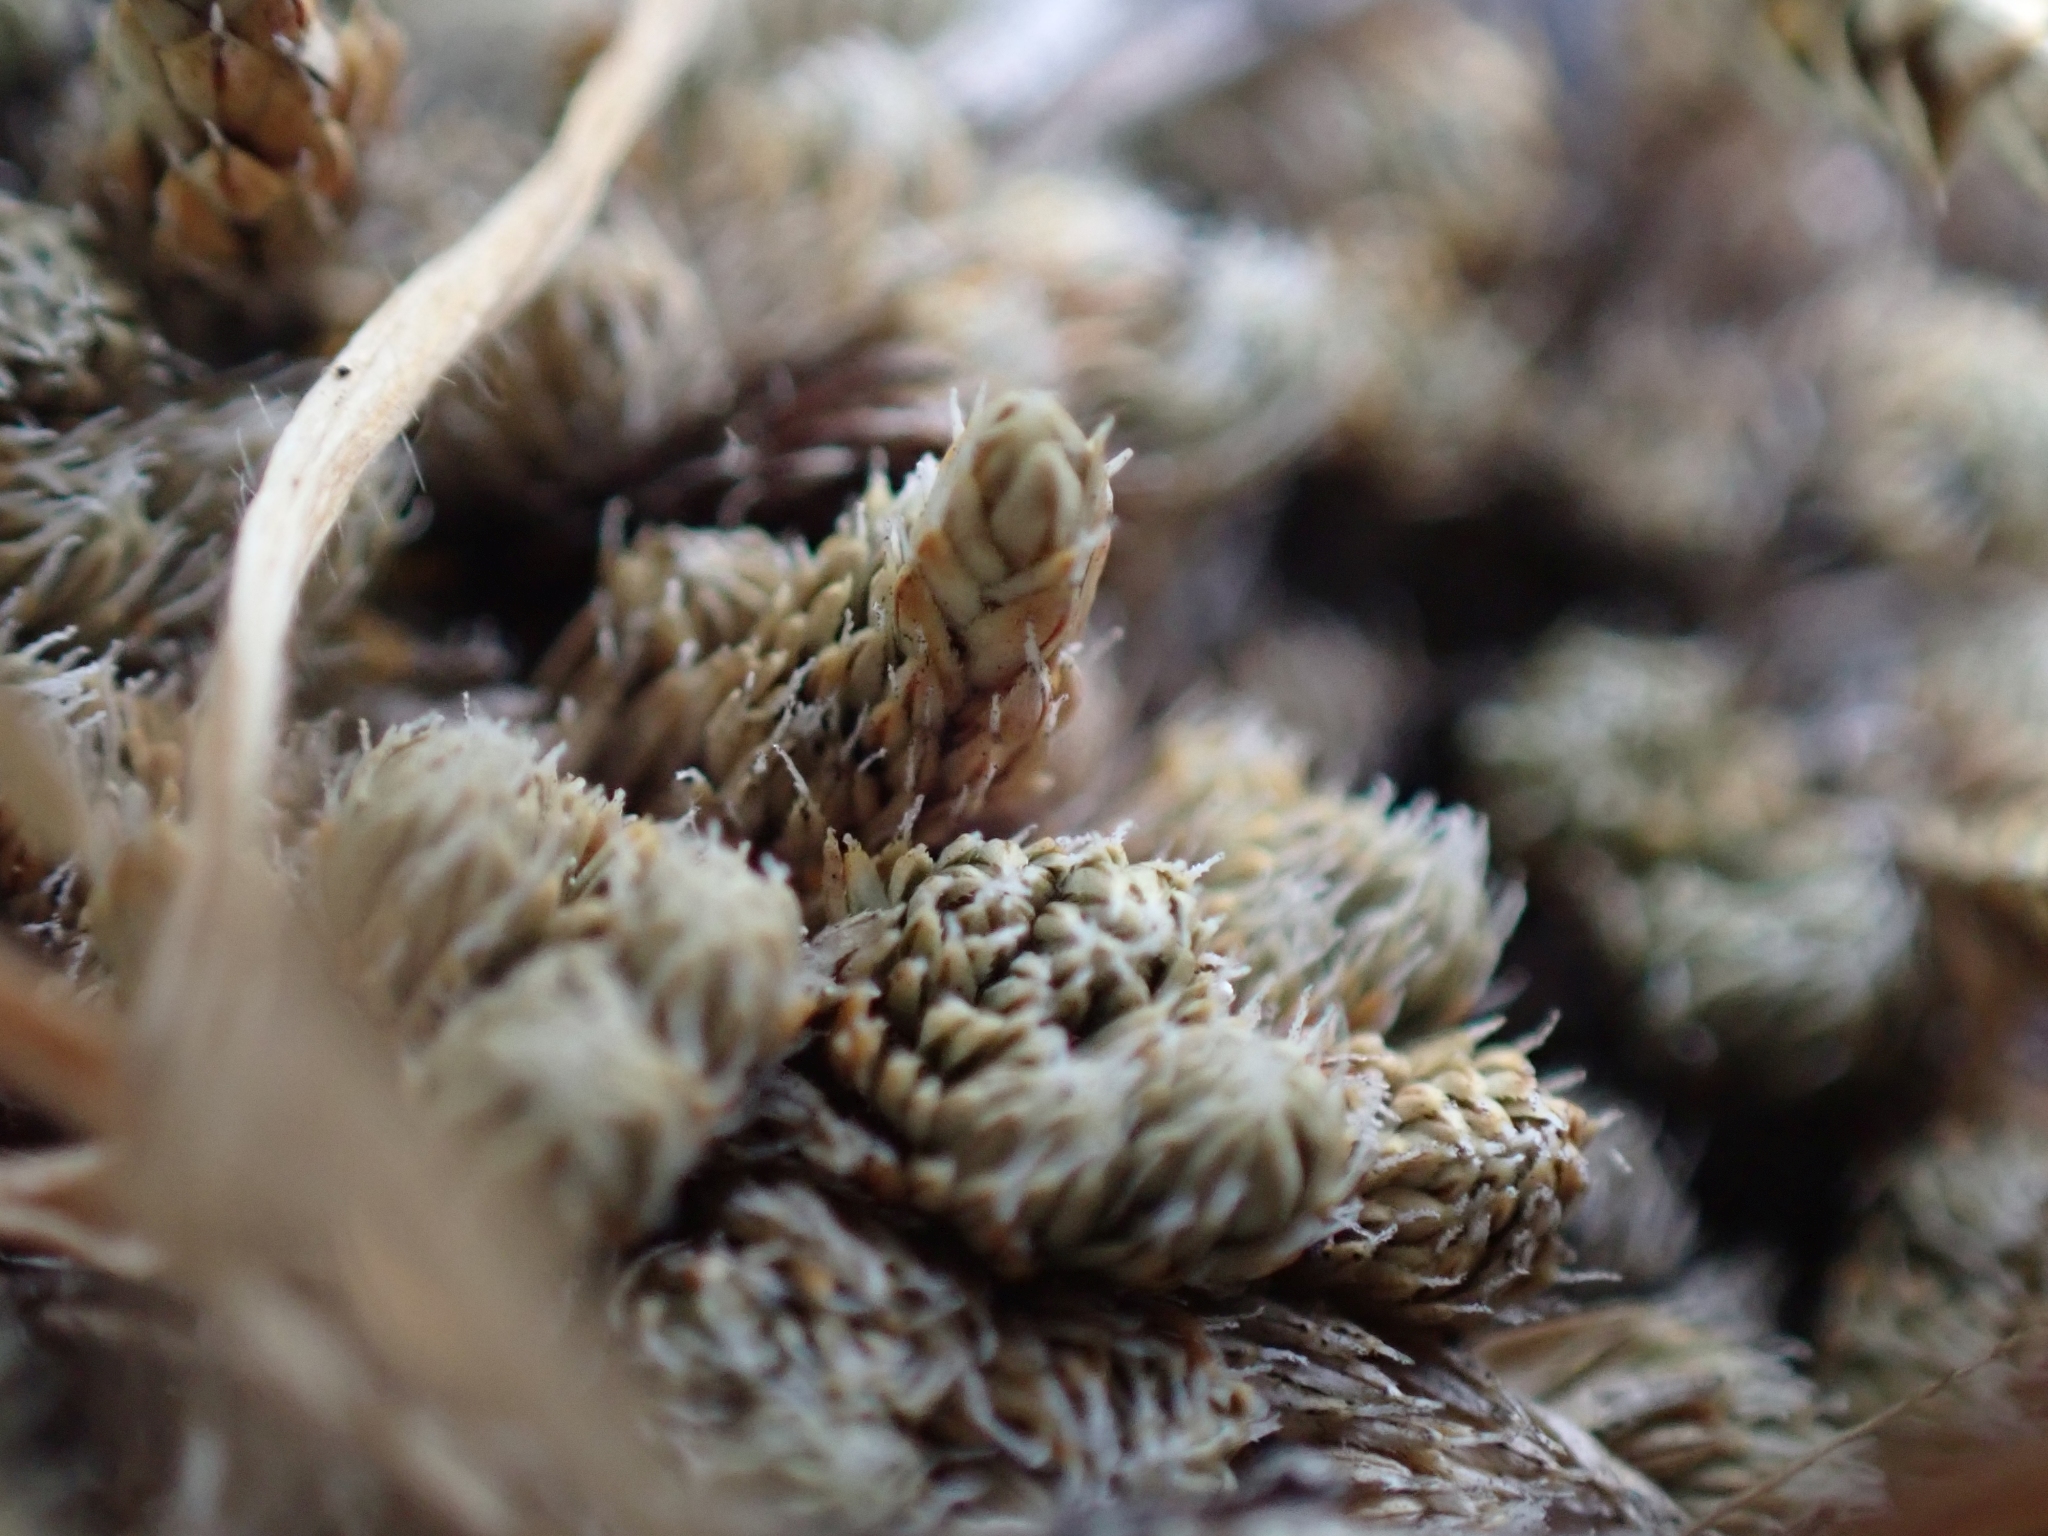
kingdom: Plantae
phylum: Tracheophyta
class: Lycopodiopsida
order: Selaginellales
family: Selaginellaceae
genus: Selaginella
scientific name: Selaginella densa
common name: Mountain spike-moss
